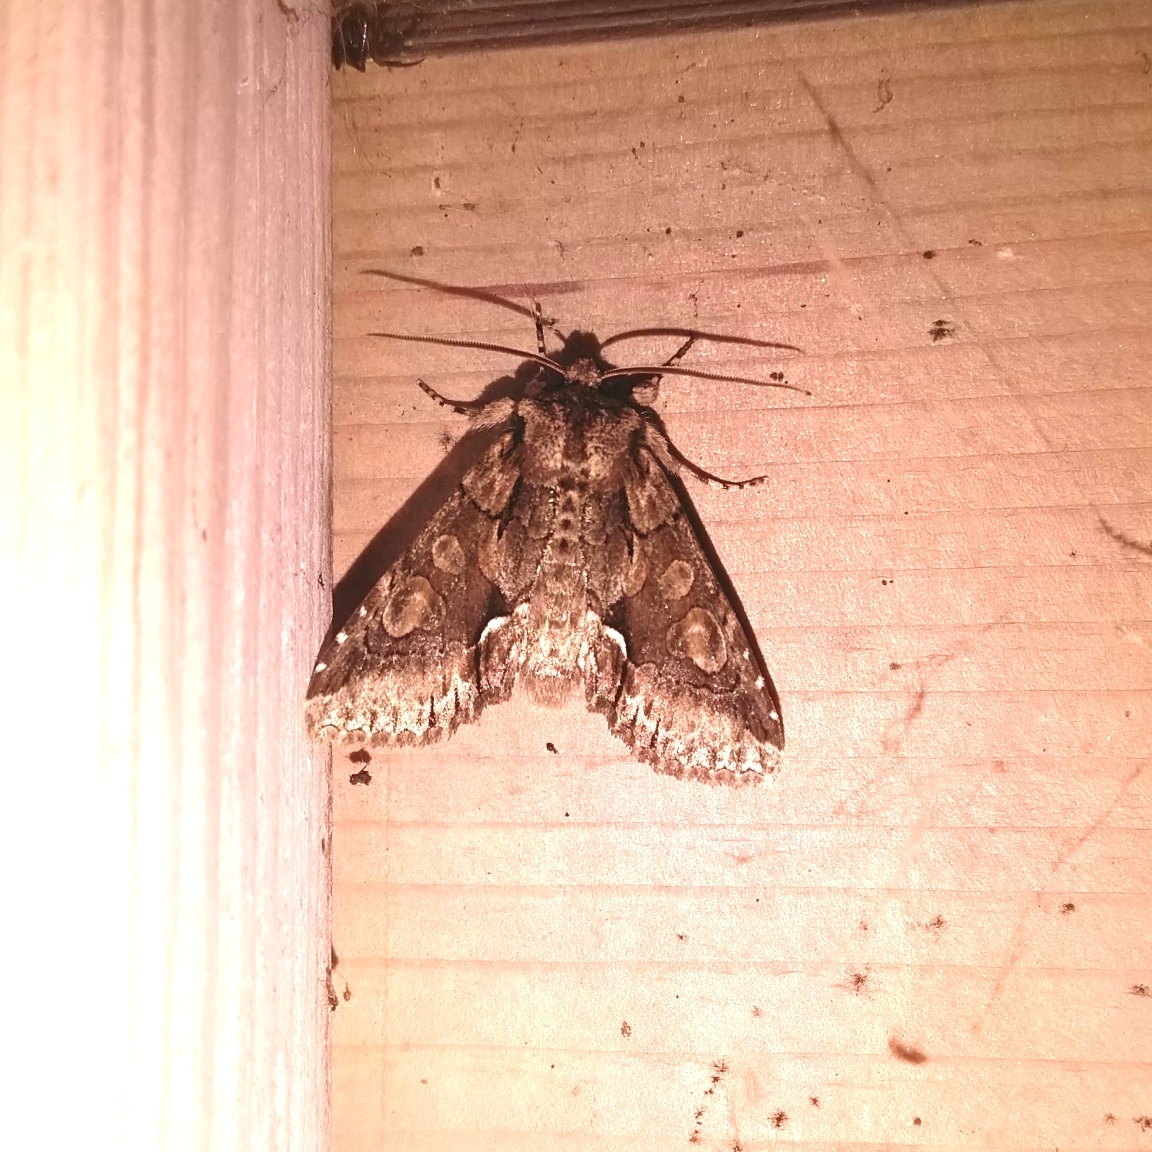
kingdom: Animalia
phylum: Arthropoda
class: Insecta
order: Lepidoptera
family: Noctuidae
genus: Allophyes
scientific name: Allophyes oxyacanthae
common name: Green-brindled crescent
